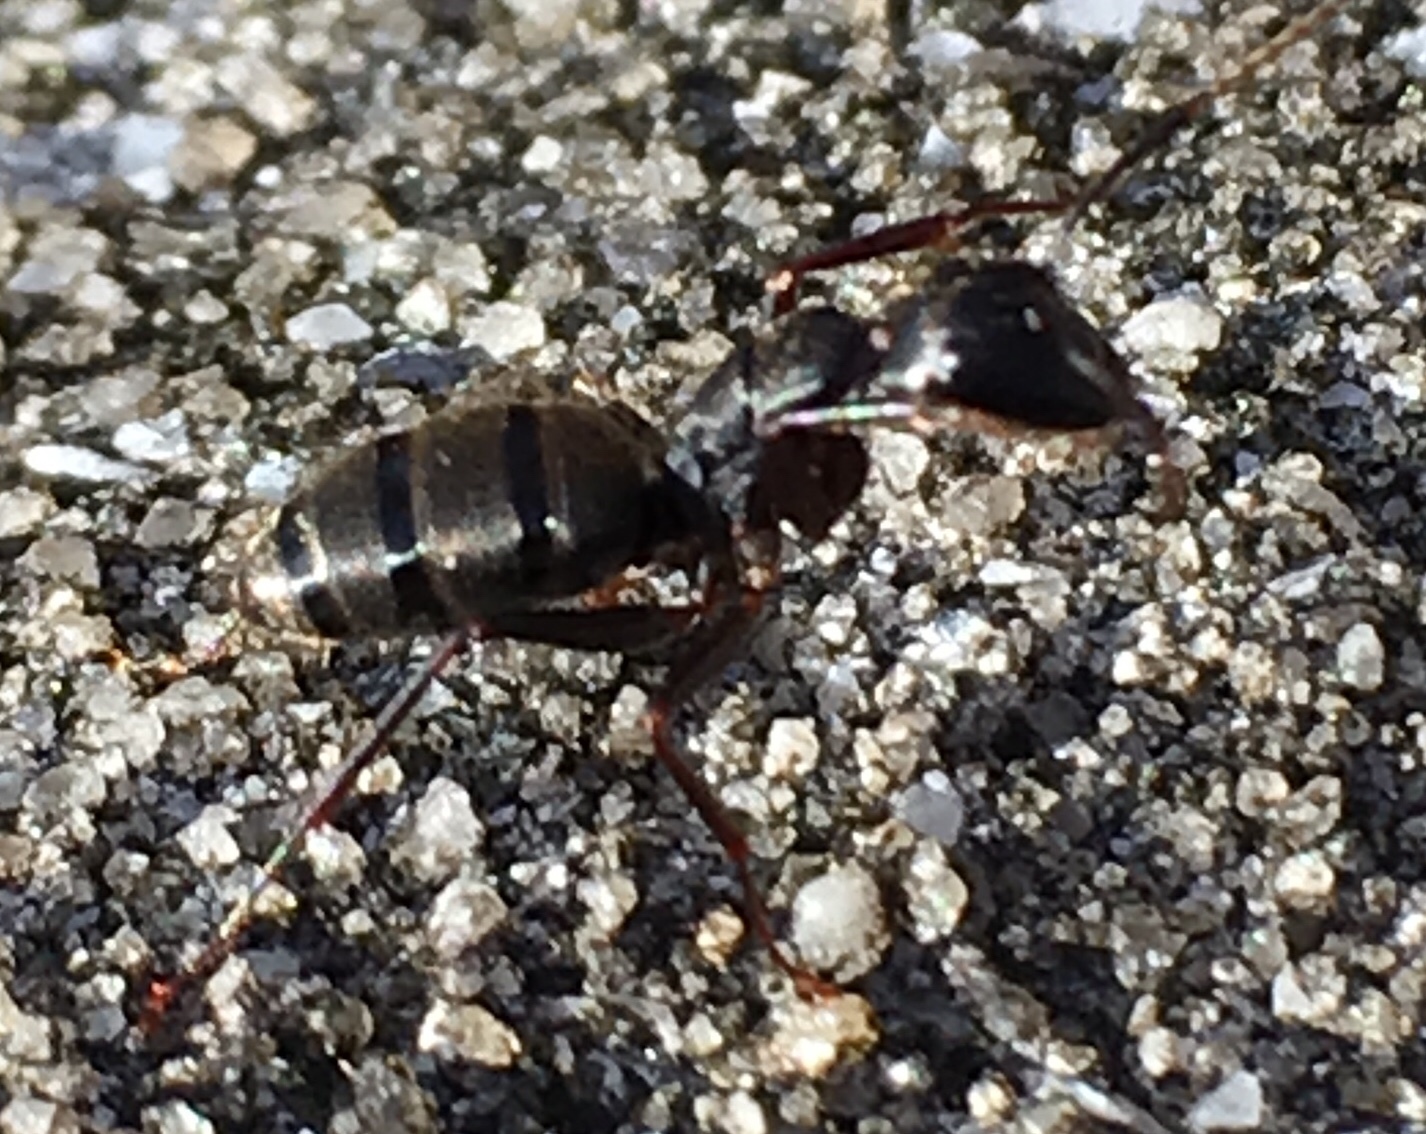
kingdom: Animalia
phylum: Arthropoda
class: Insecta
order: Hymenoptera
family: Formicidae
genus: Camponotus
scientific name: Camponotus pennsylvanicus
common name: Black carpenter ant
